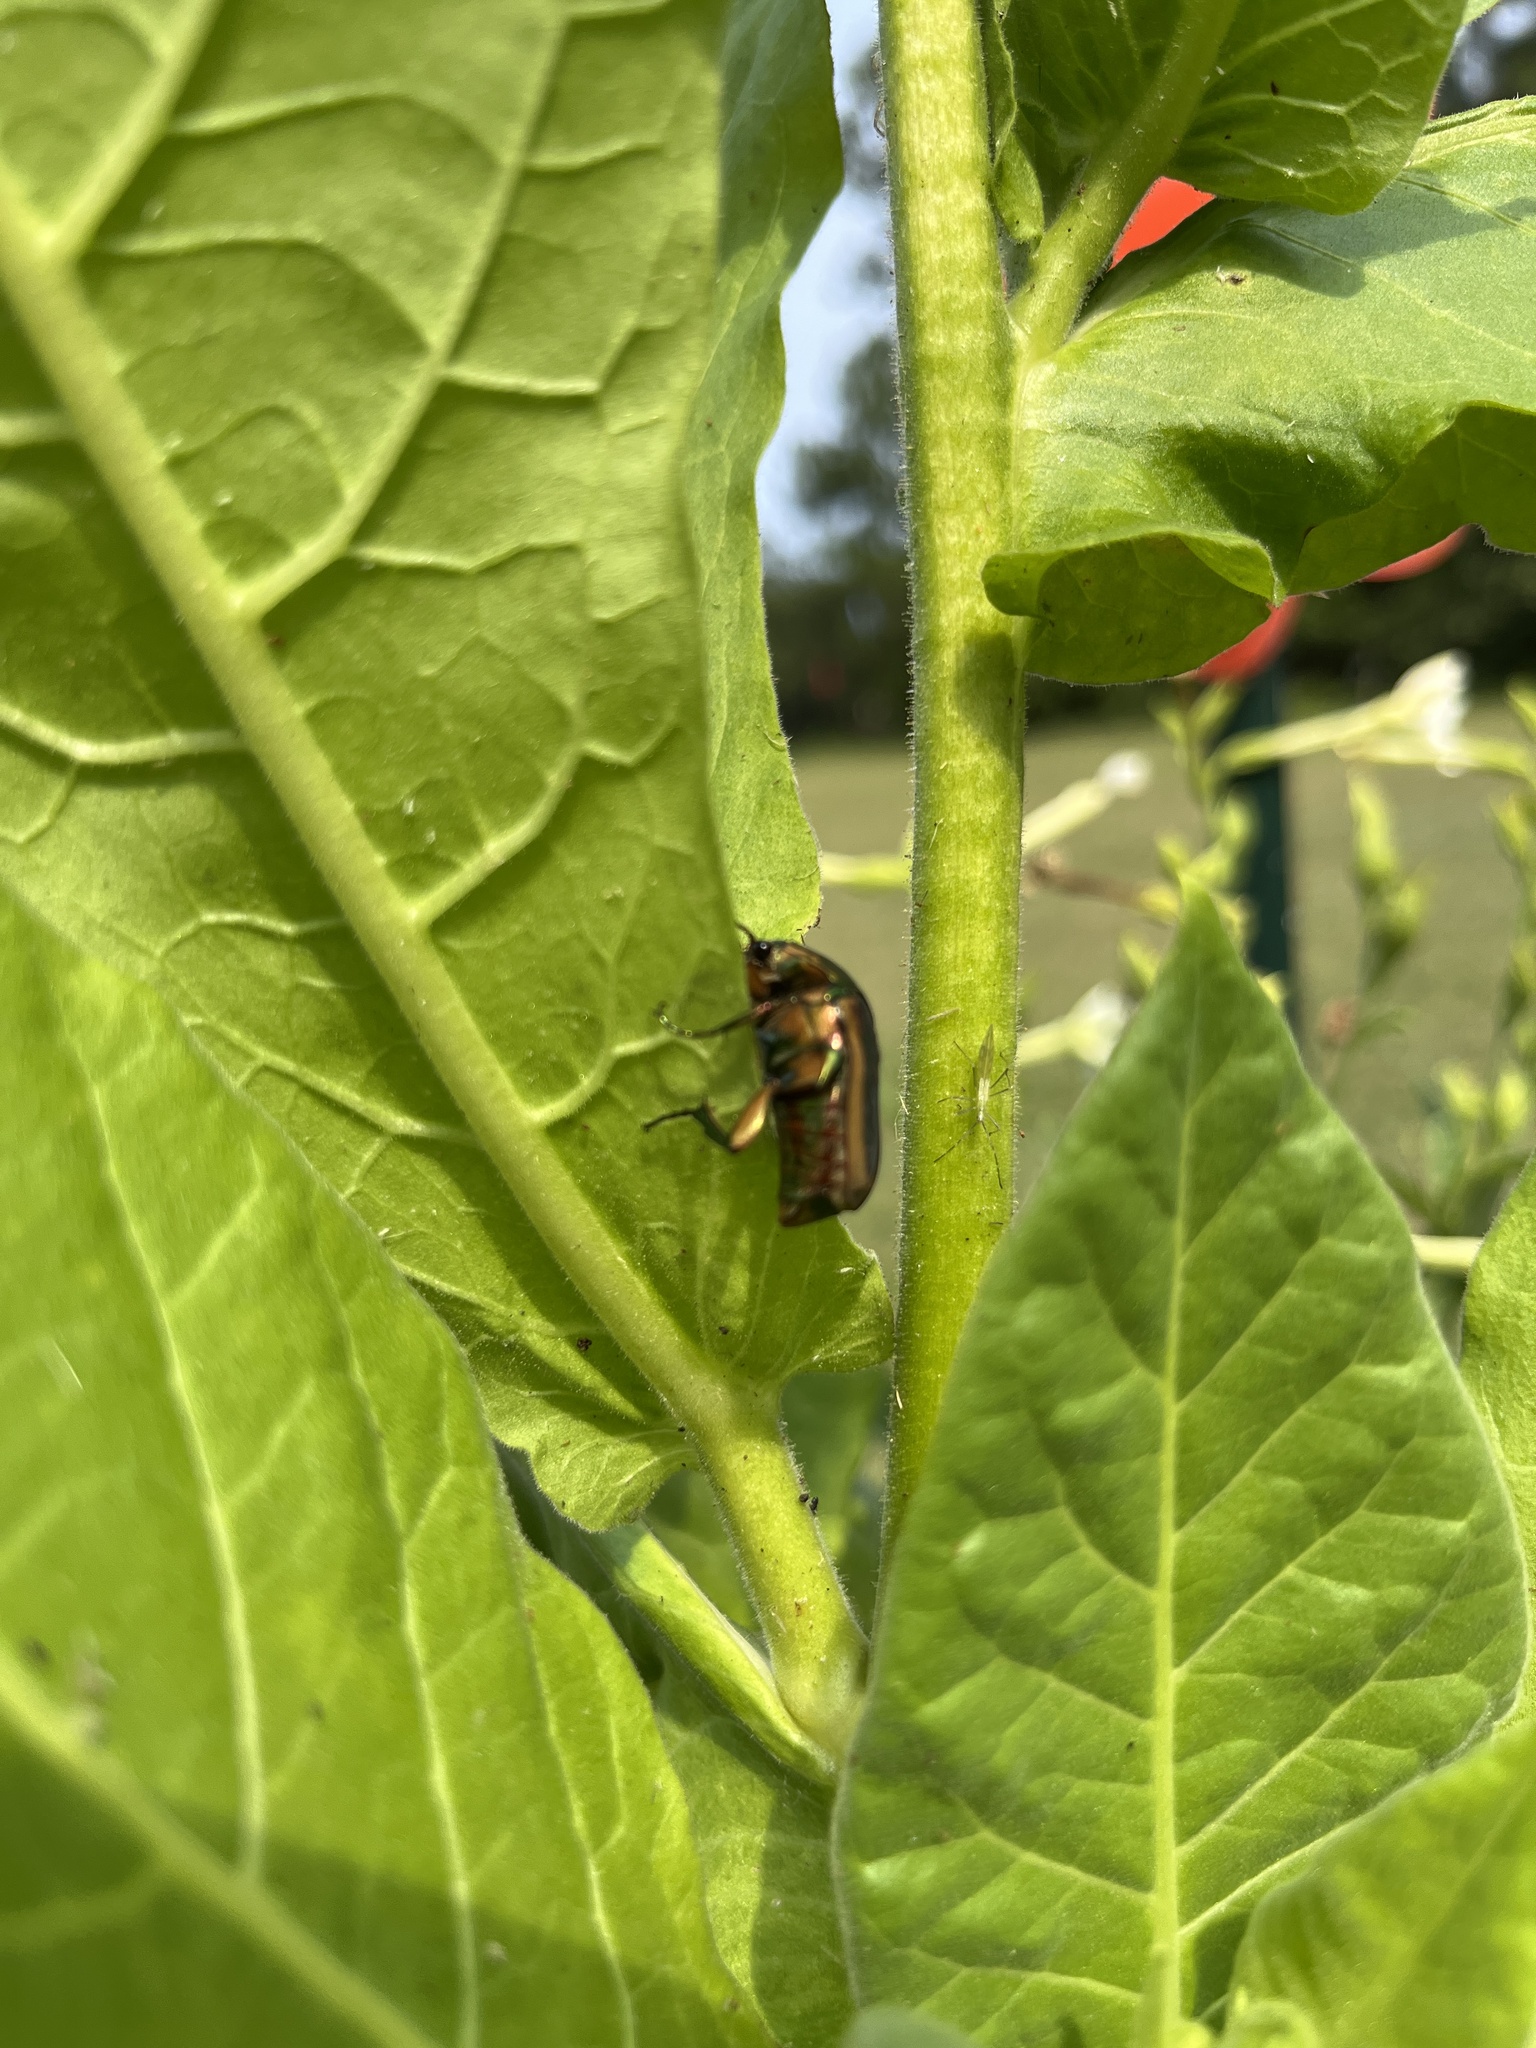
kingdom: Animalia
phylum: Arthropoda
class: Insecta
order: Coleoptera
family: Scarabaeidae
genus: Cotinis
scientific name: Cotinis nitida
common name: Common green june beetle
